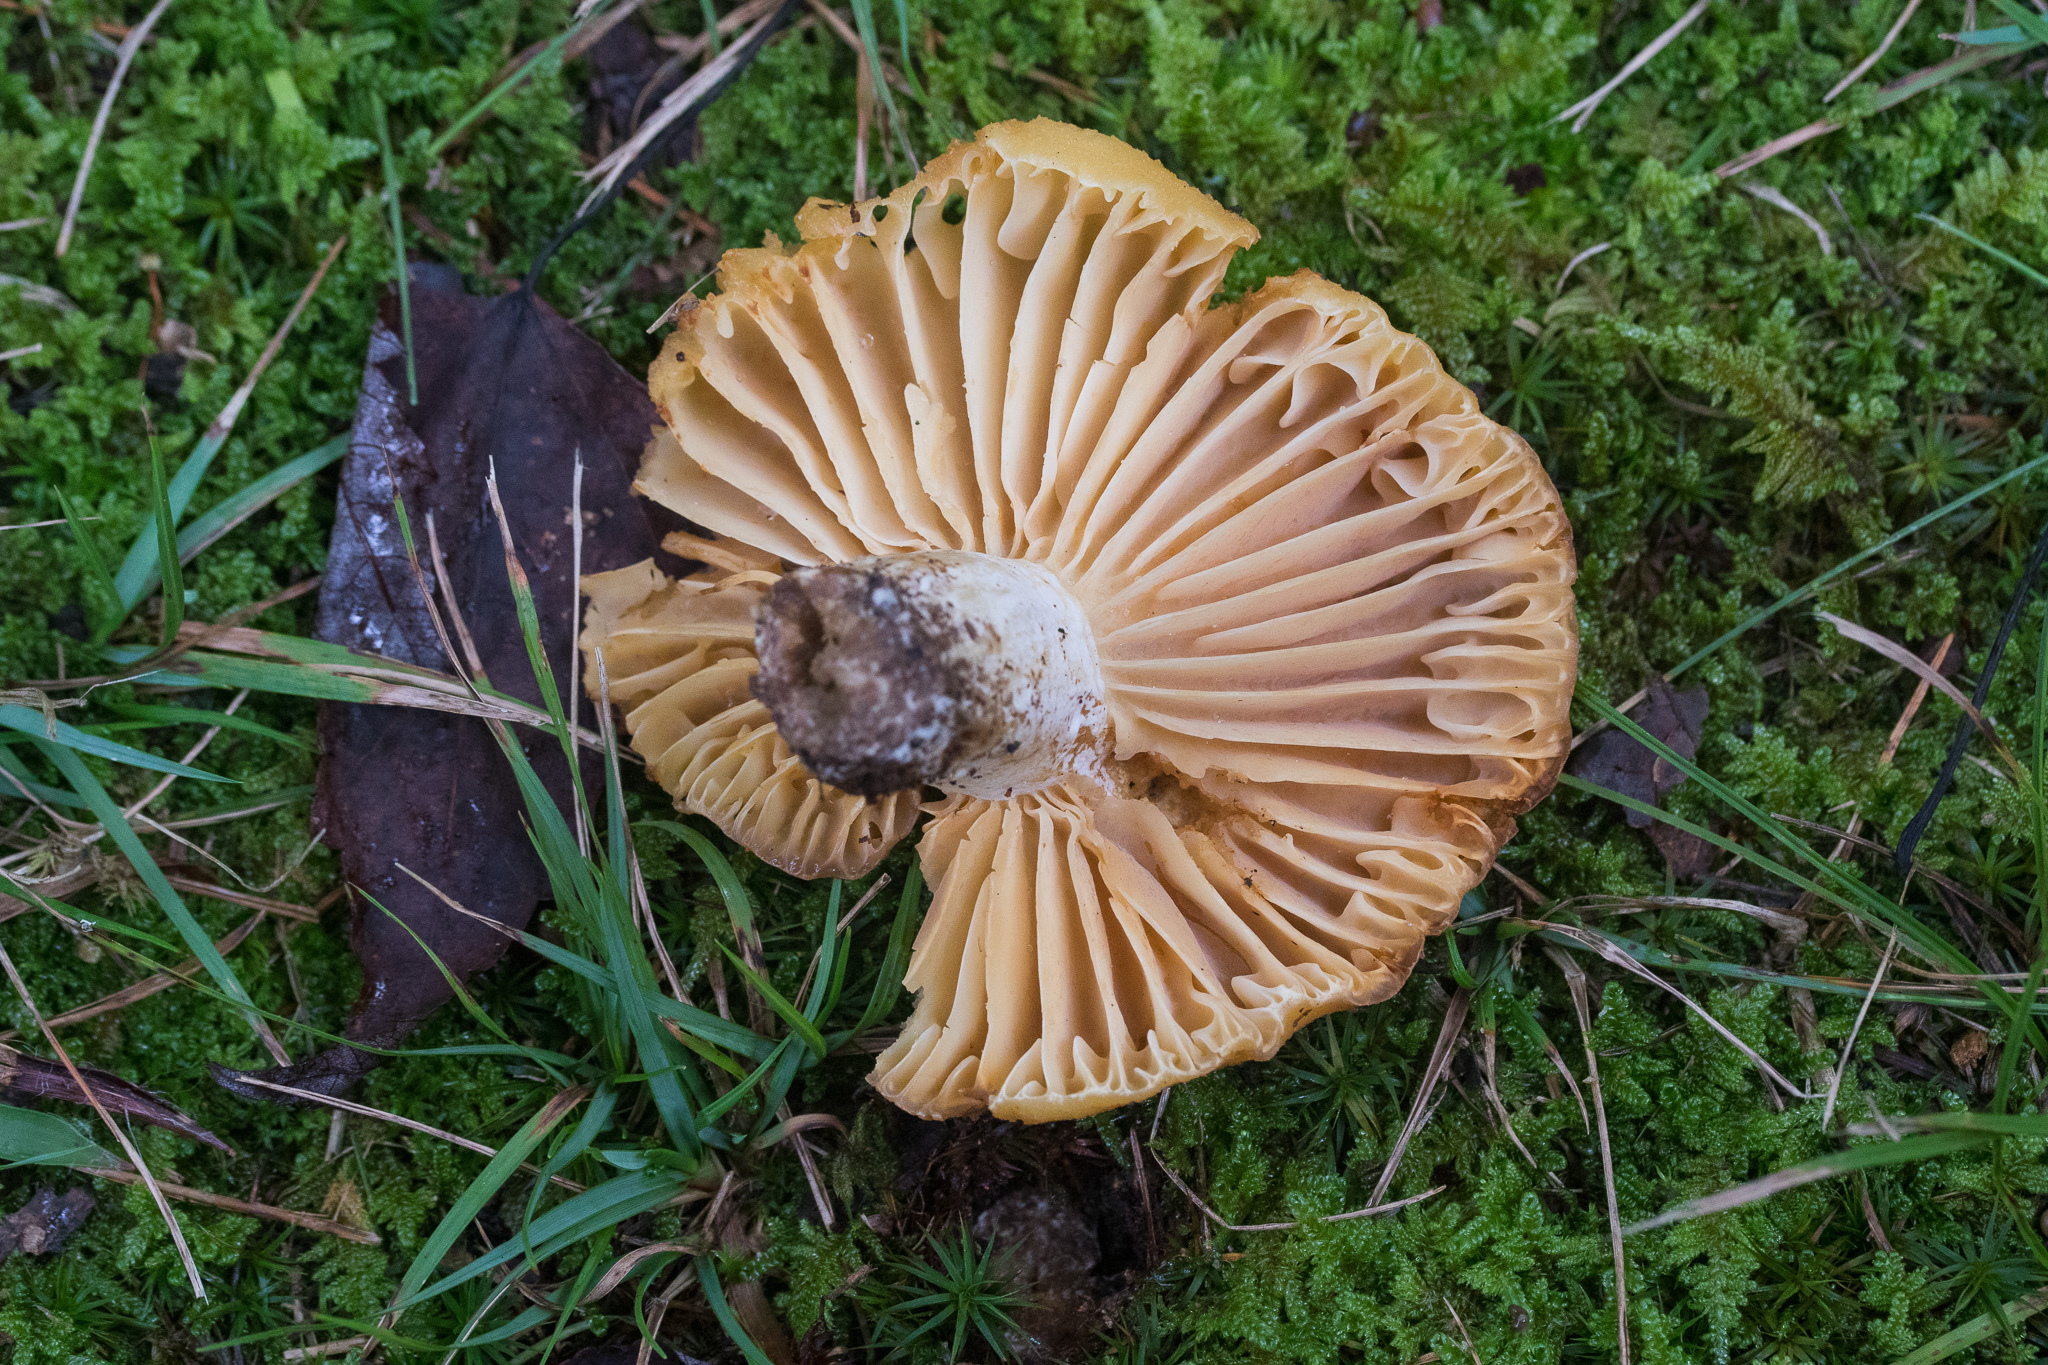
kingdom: Fungi
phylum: Basidiomycota
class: Agaricomycetes
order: Russulales
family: Russulaceae
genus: Russula
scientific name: Russula earlei
